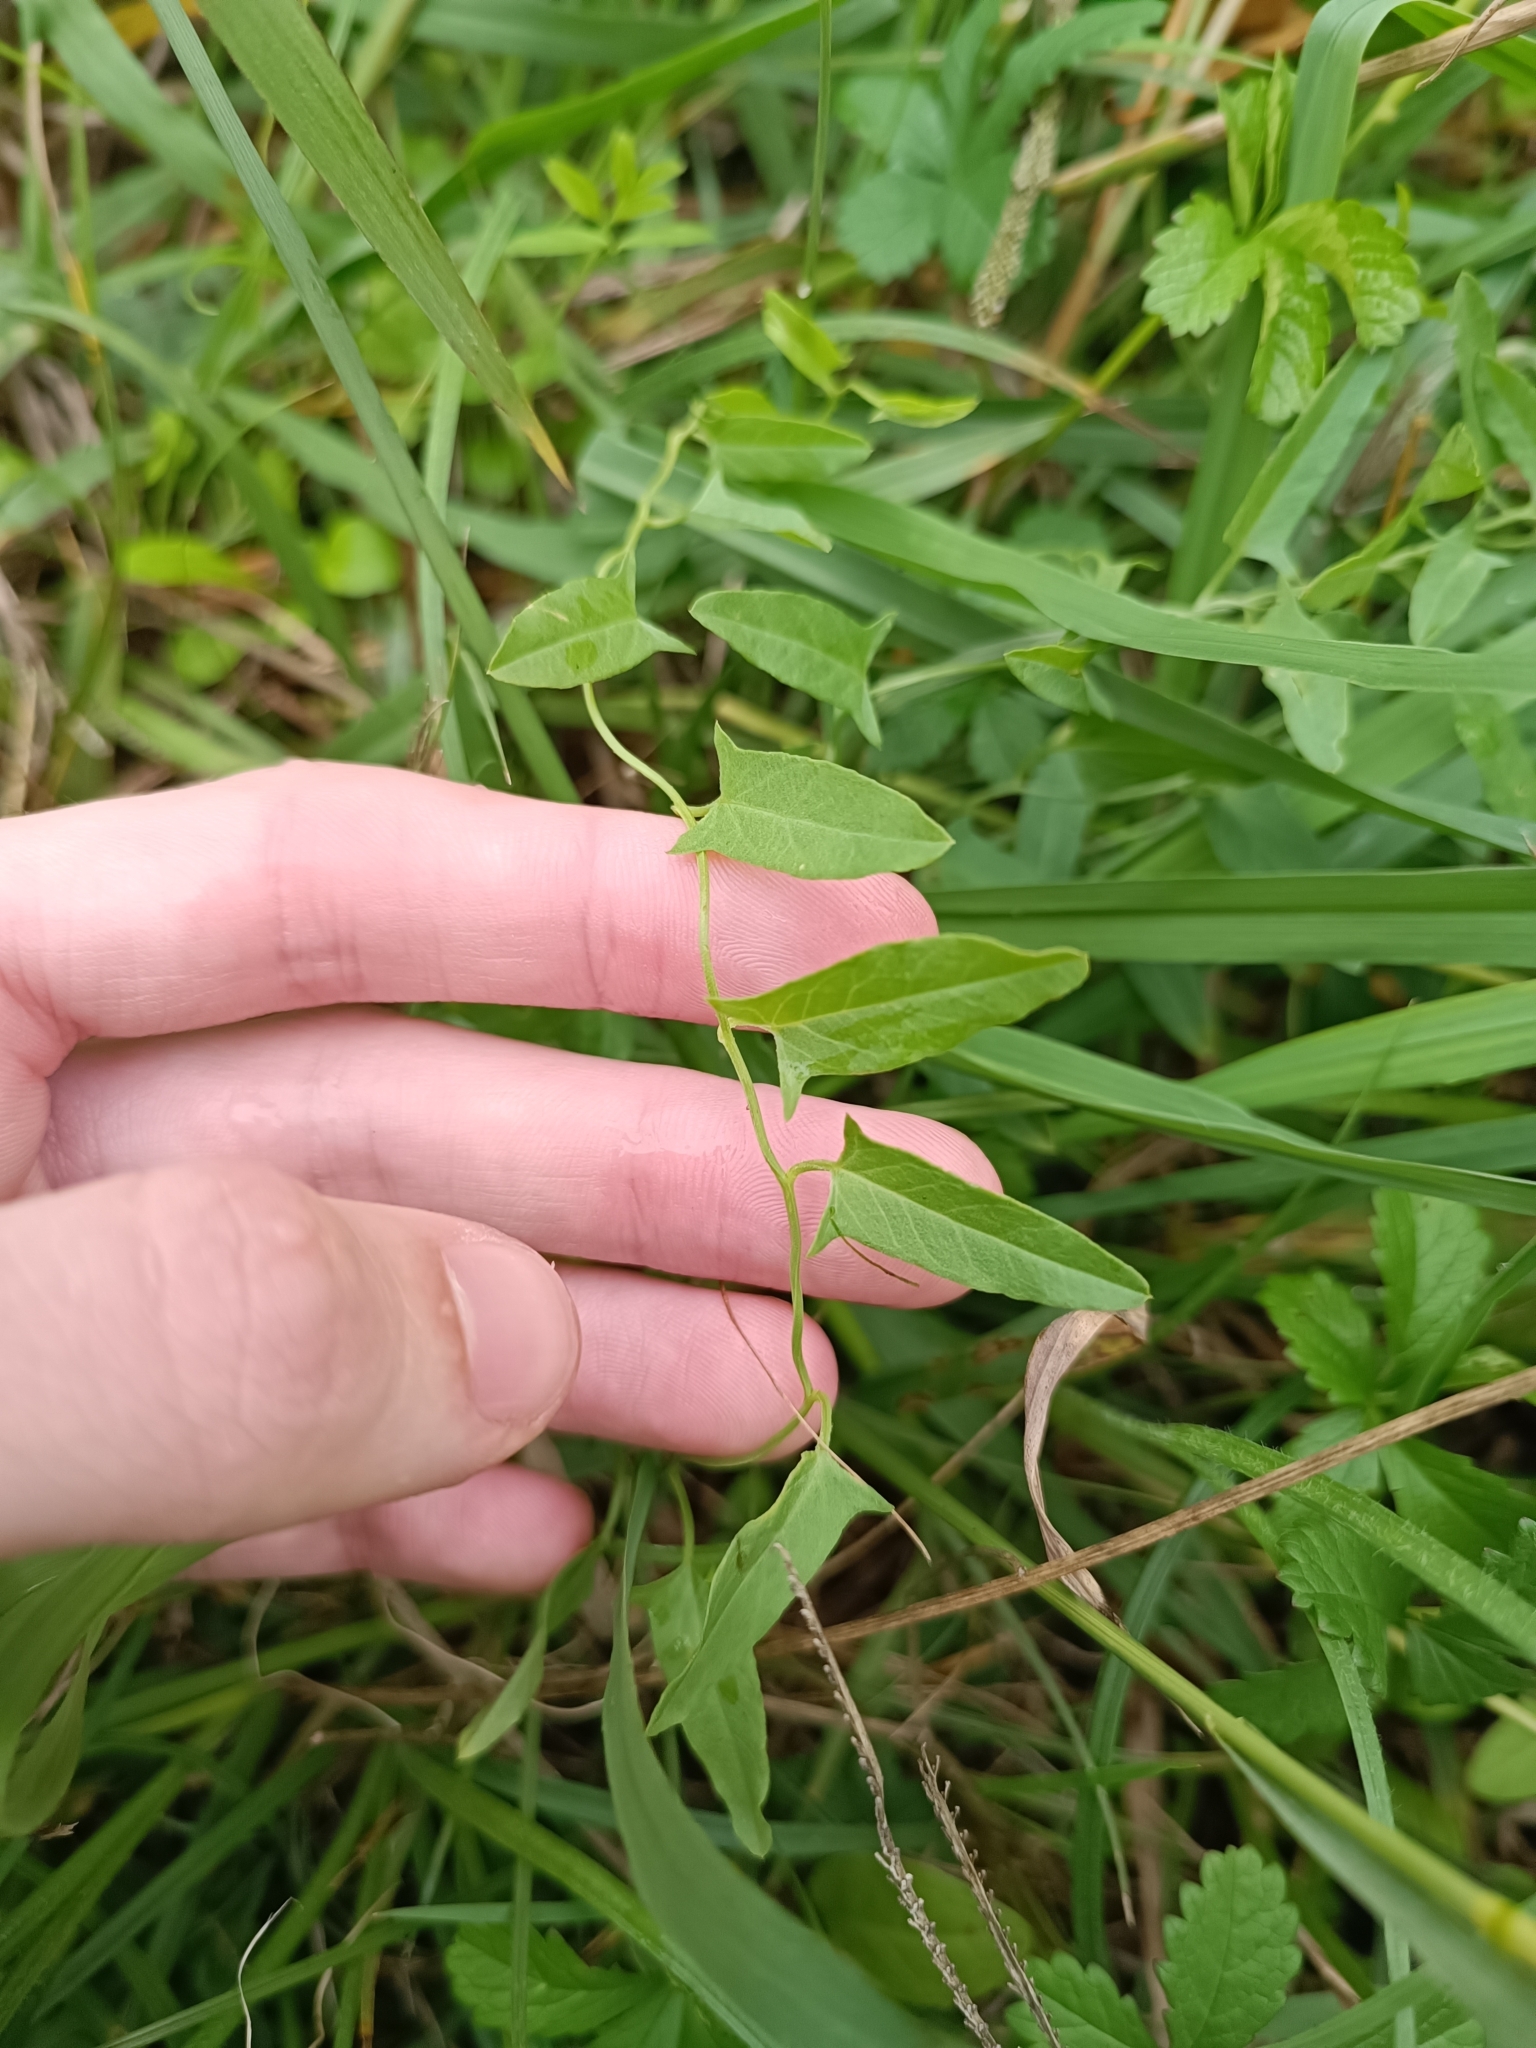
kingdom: Plantae
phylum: Tracheophyta
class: Magnoliopsida
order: Solanales
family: Convolvulaceae
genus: Convolvulus
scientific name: Convolvulus arvensis
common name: Field bindweed
